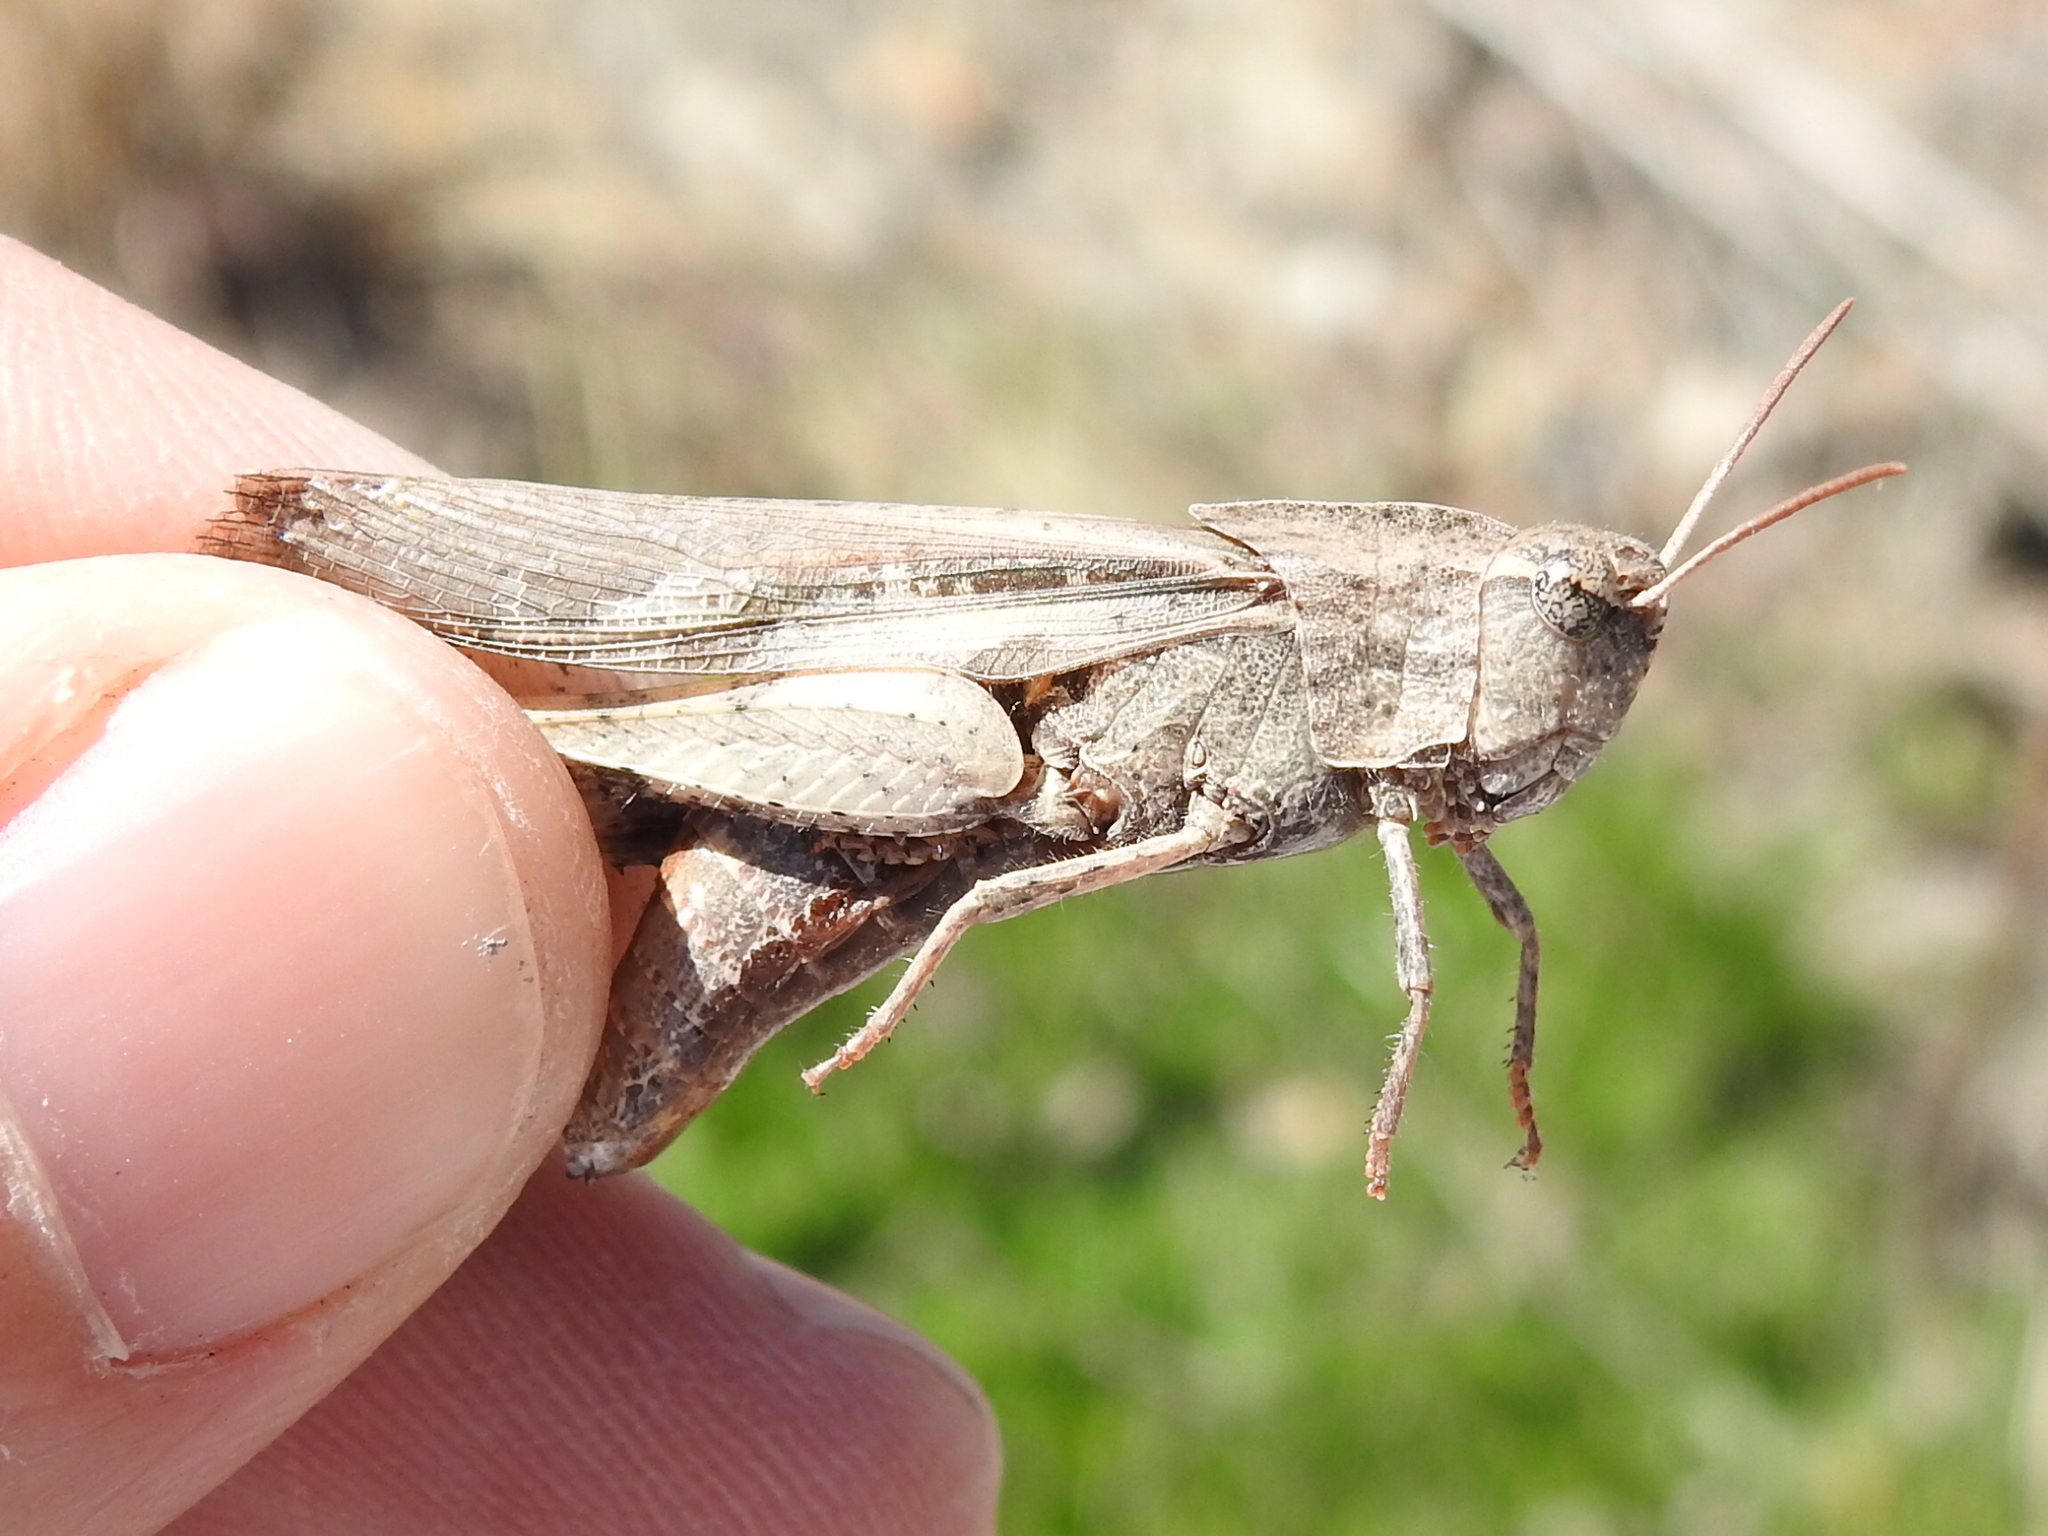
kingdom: Animalia
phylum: Arthropoda
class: Insecta
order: Orthoptera
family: Acrididae
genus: Chortophaga
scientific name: Chortophaga viridifasciata
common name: Green-striped grasshopper
